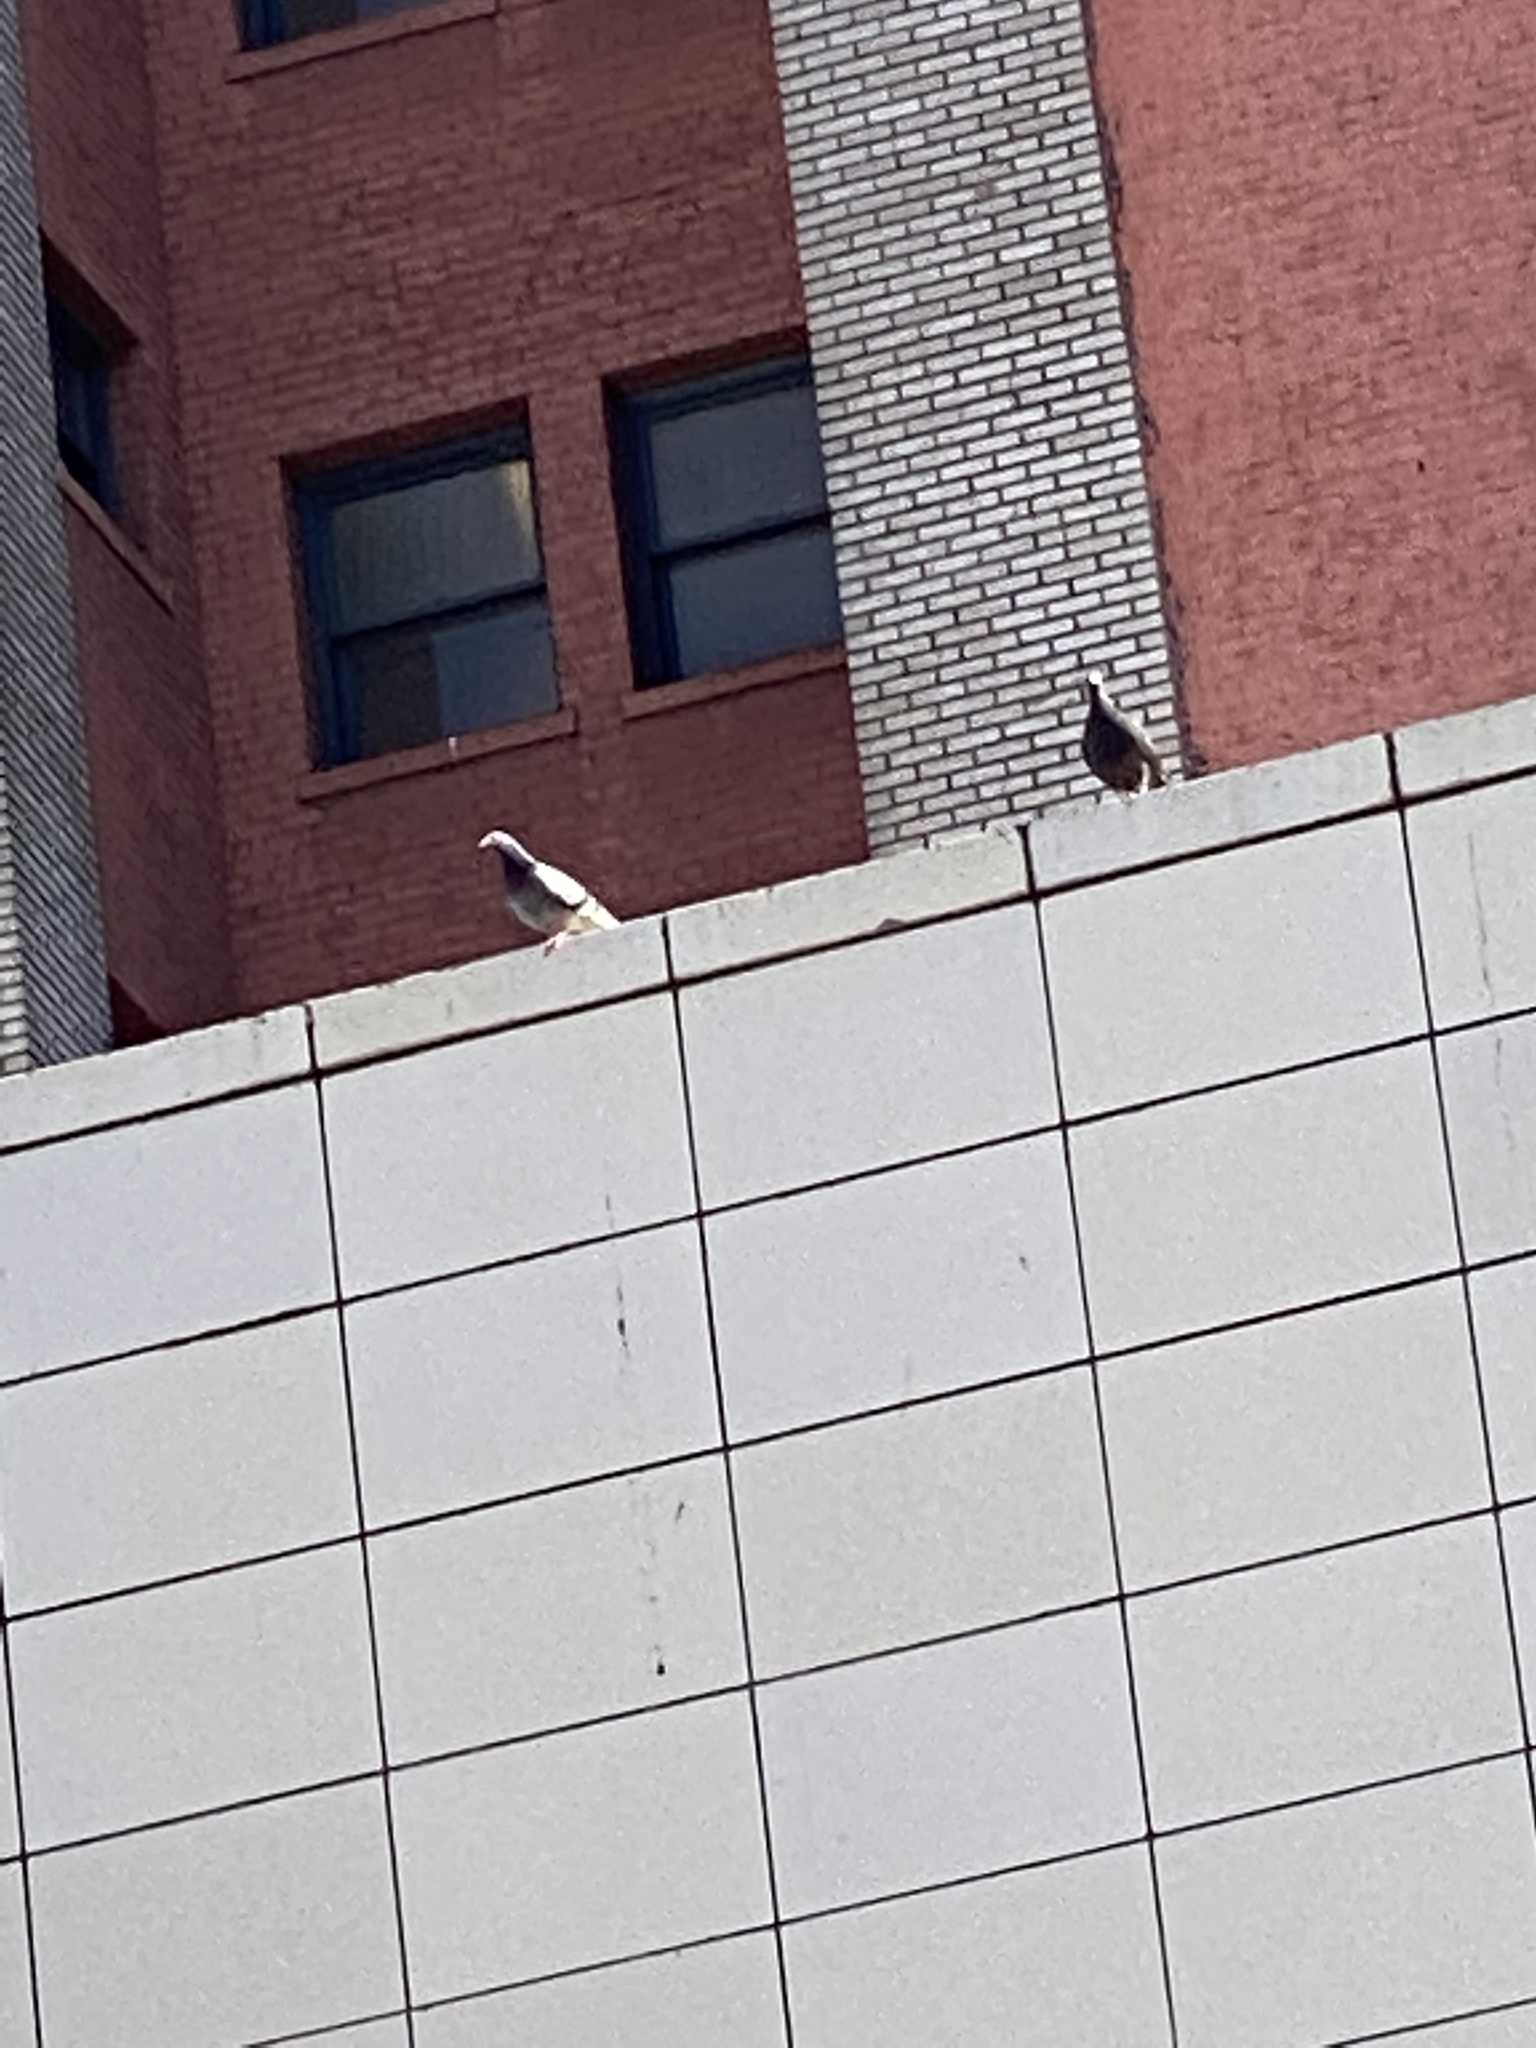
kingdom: Animalia
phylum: Chordata
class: Aves
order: Columbiformes
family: Columbidae
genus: Columba
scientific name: Columba livia
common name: Rock pigeon
